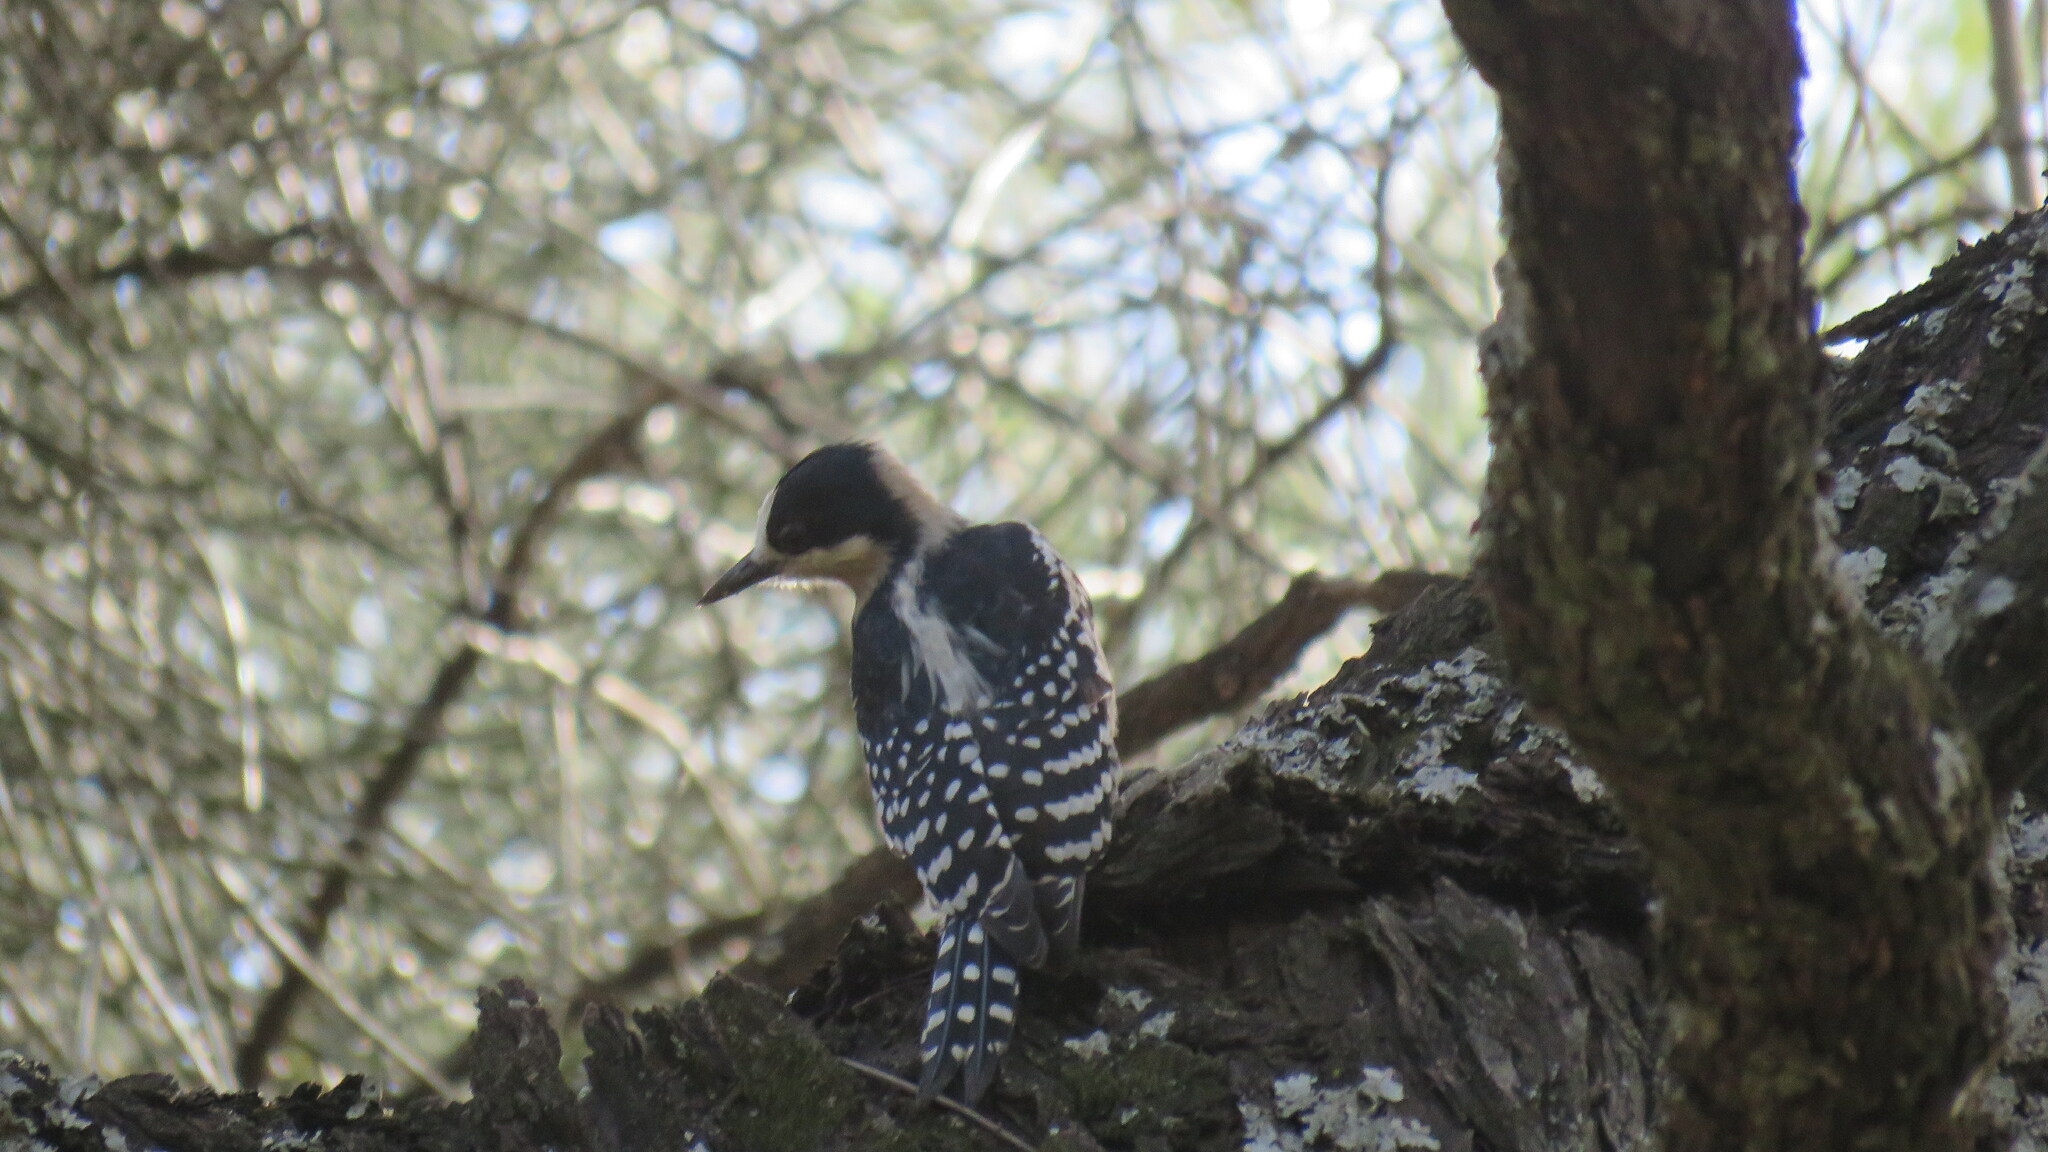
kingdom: Animalia
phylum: Chordata
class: Aves
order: Piciformes
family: Picidae
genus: Melanerpes
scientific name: Melanerpes cactorum
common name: White-fronted woodpecker
